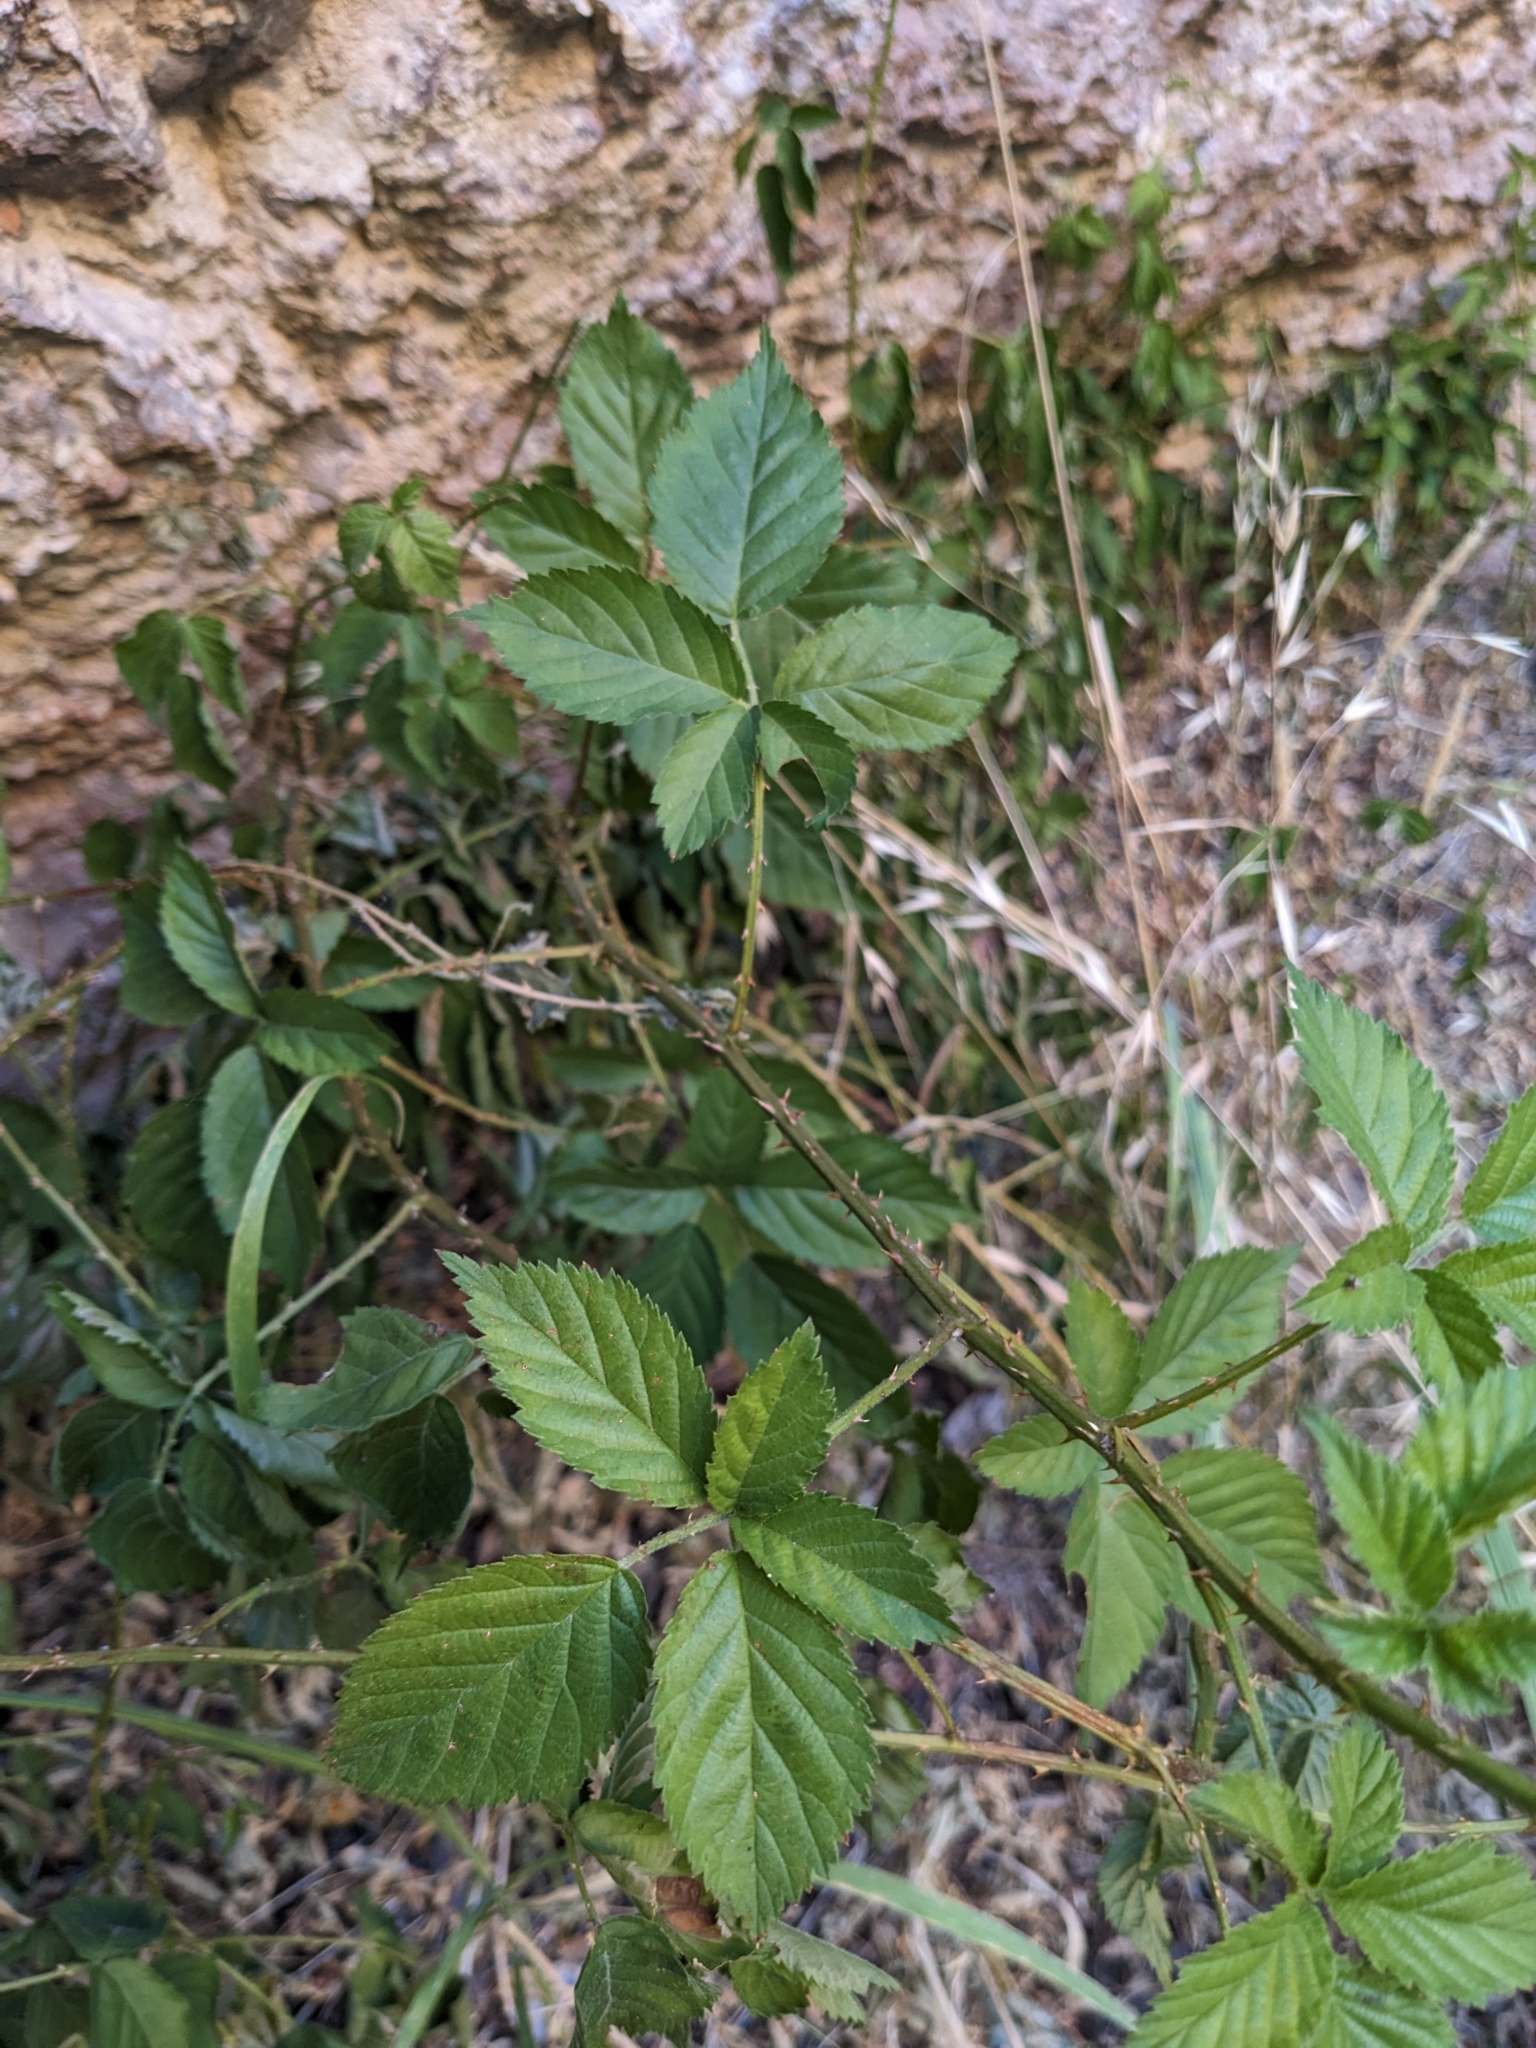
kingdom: Plantae
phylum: Tracheophyta
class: Magnoliopsida
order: Rosales
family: Rosaceae
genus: Rubus
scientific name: Rubus arizonensis
